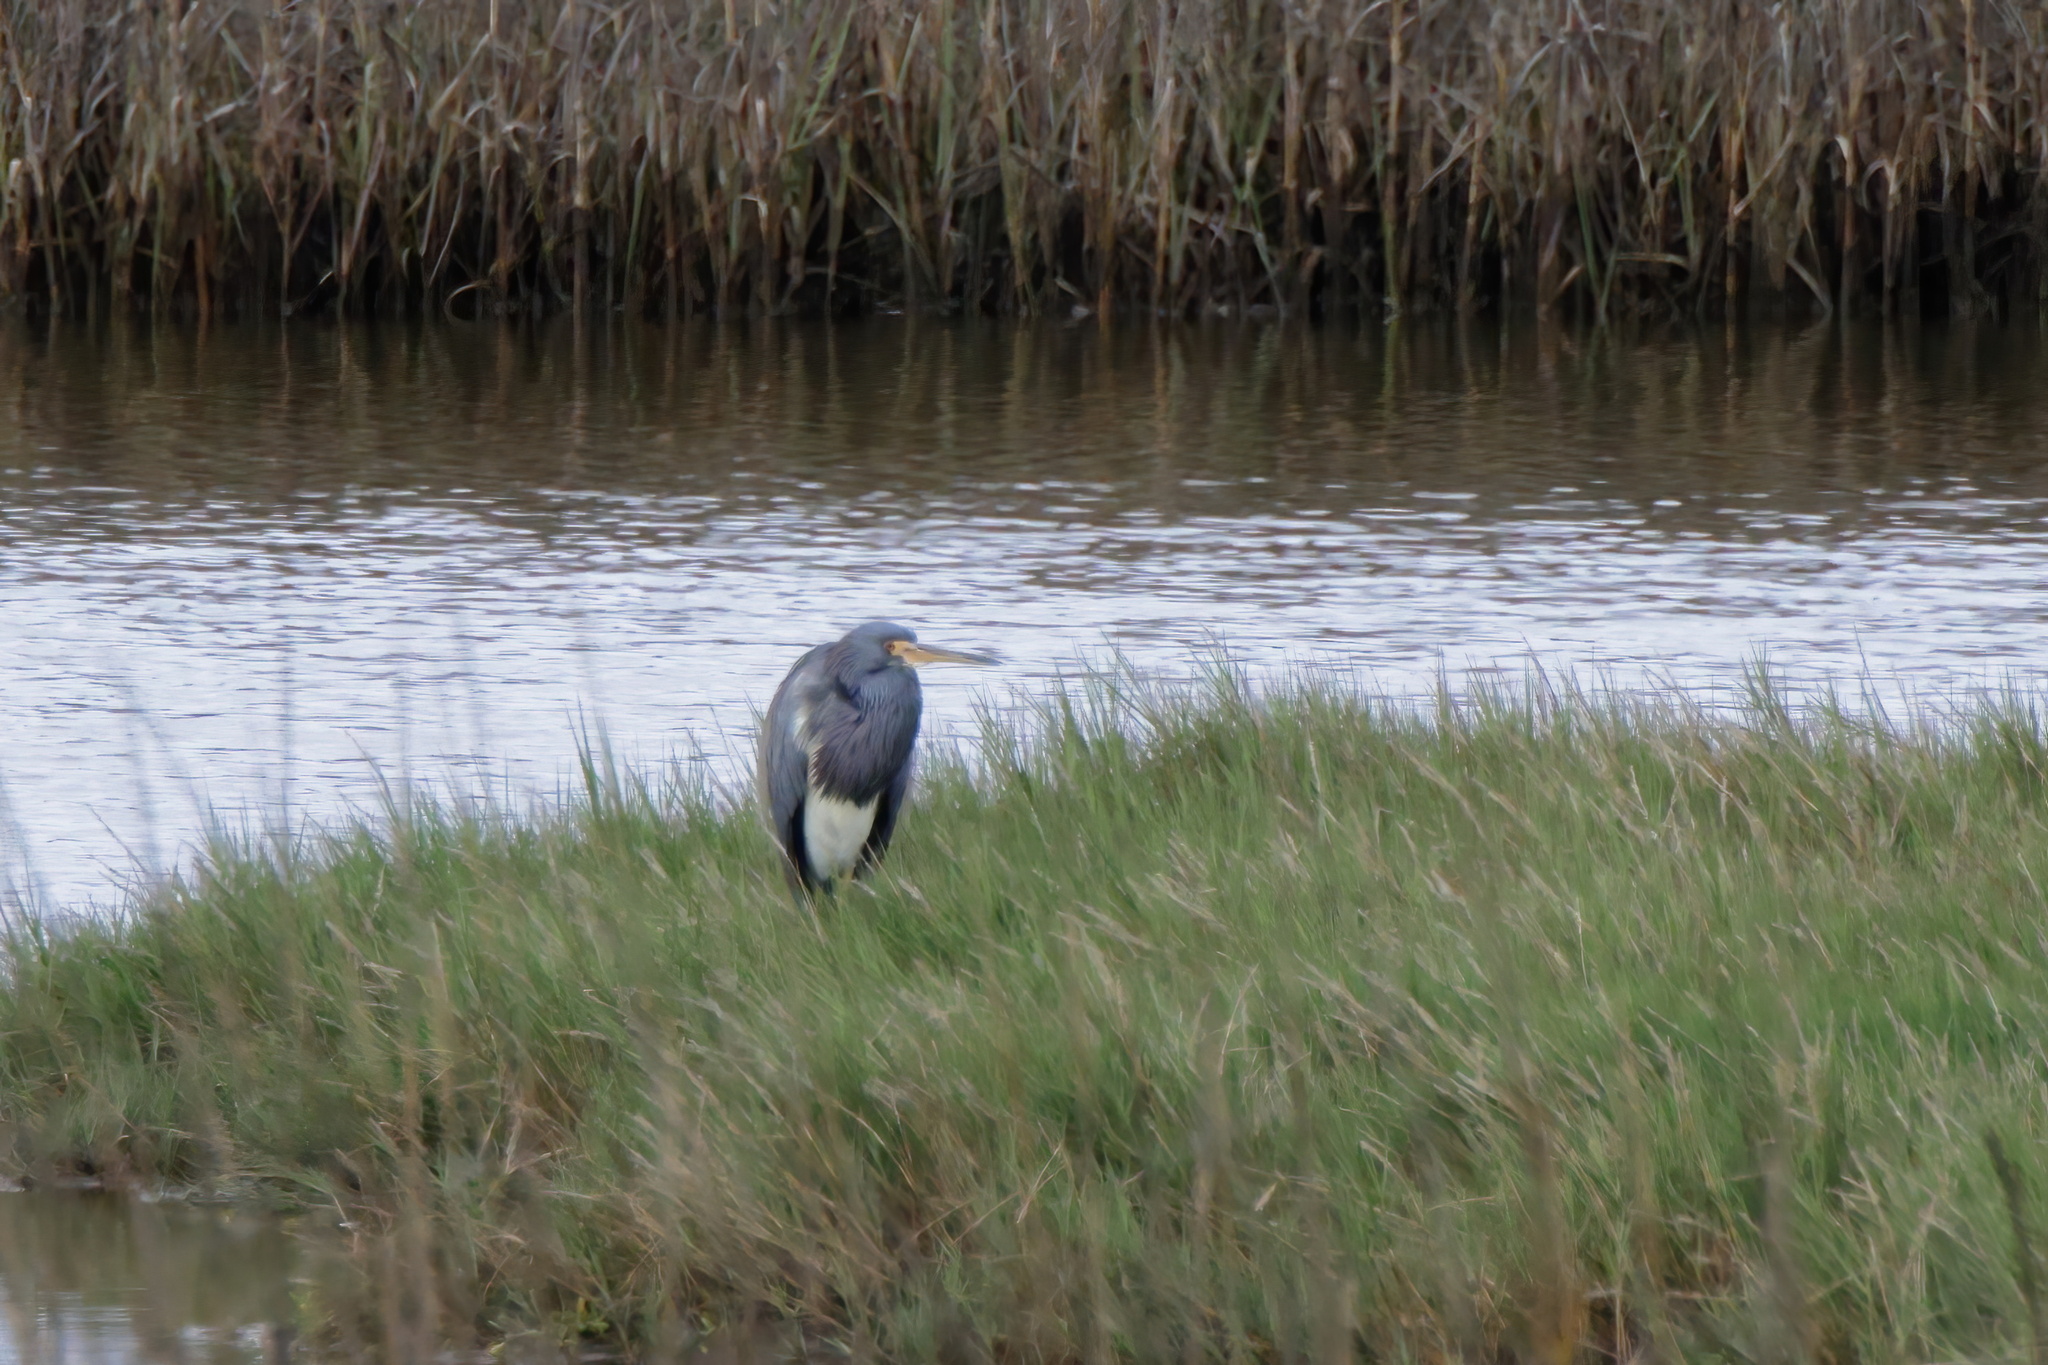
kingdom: Animalia
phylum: Chordata
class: Aves
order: Pelecaniformes
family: Ardeidae
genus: Egretta
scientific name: Egretta tricolor
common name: Tricolored heron
